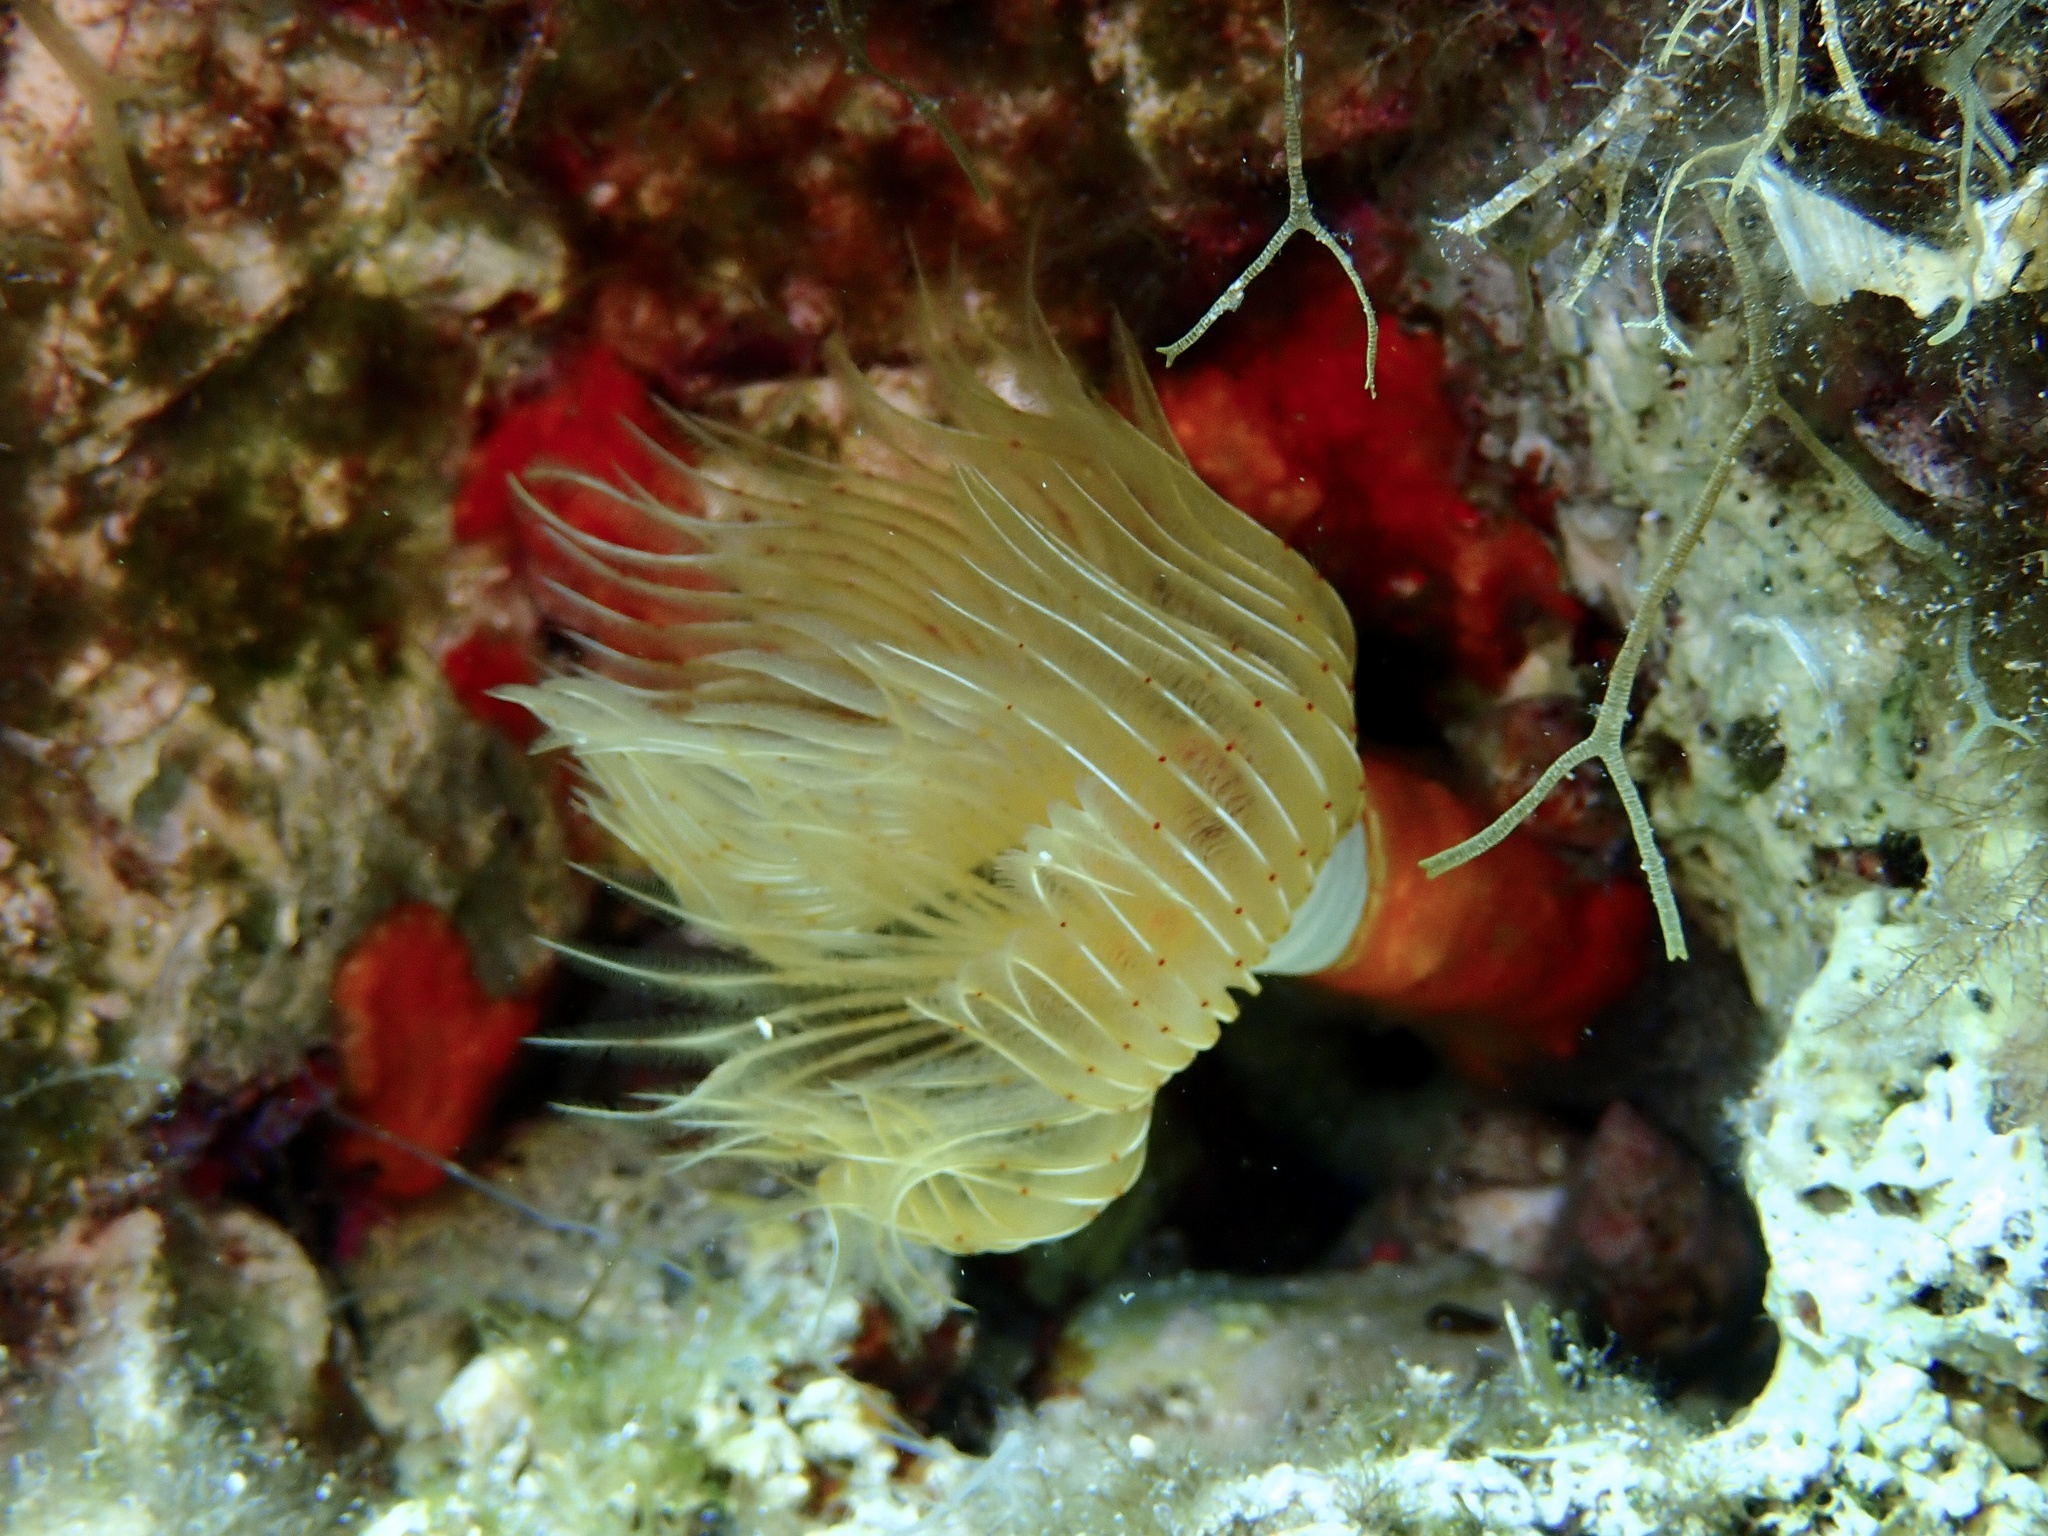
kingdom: Animalia
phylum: Annelida
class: Polychaeta
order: Sabellida
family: Serpulidae
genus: Protula
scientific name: Protula tubularia
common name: Red-spotted horseshoe
